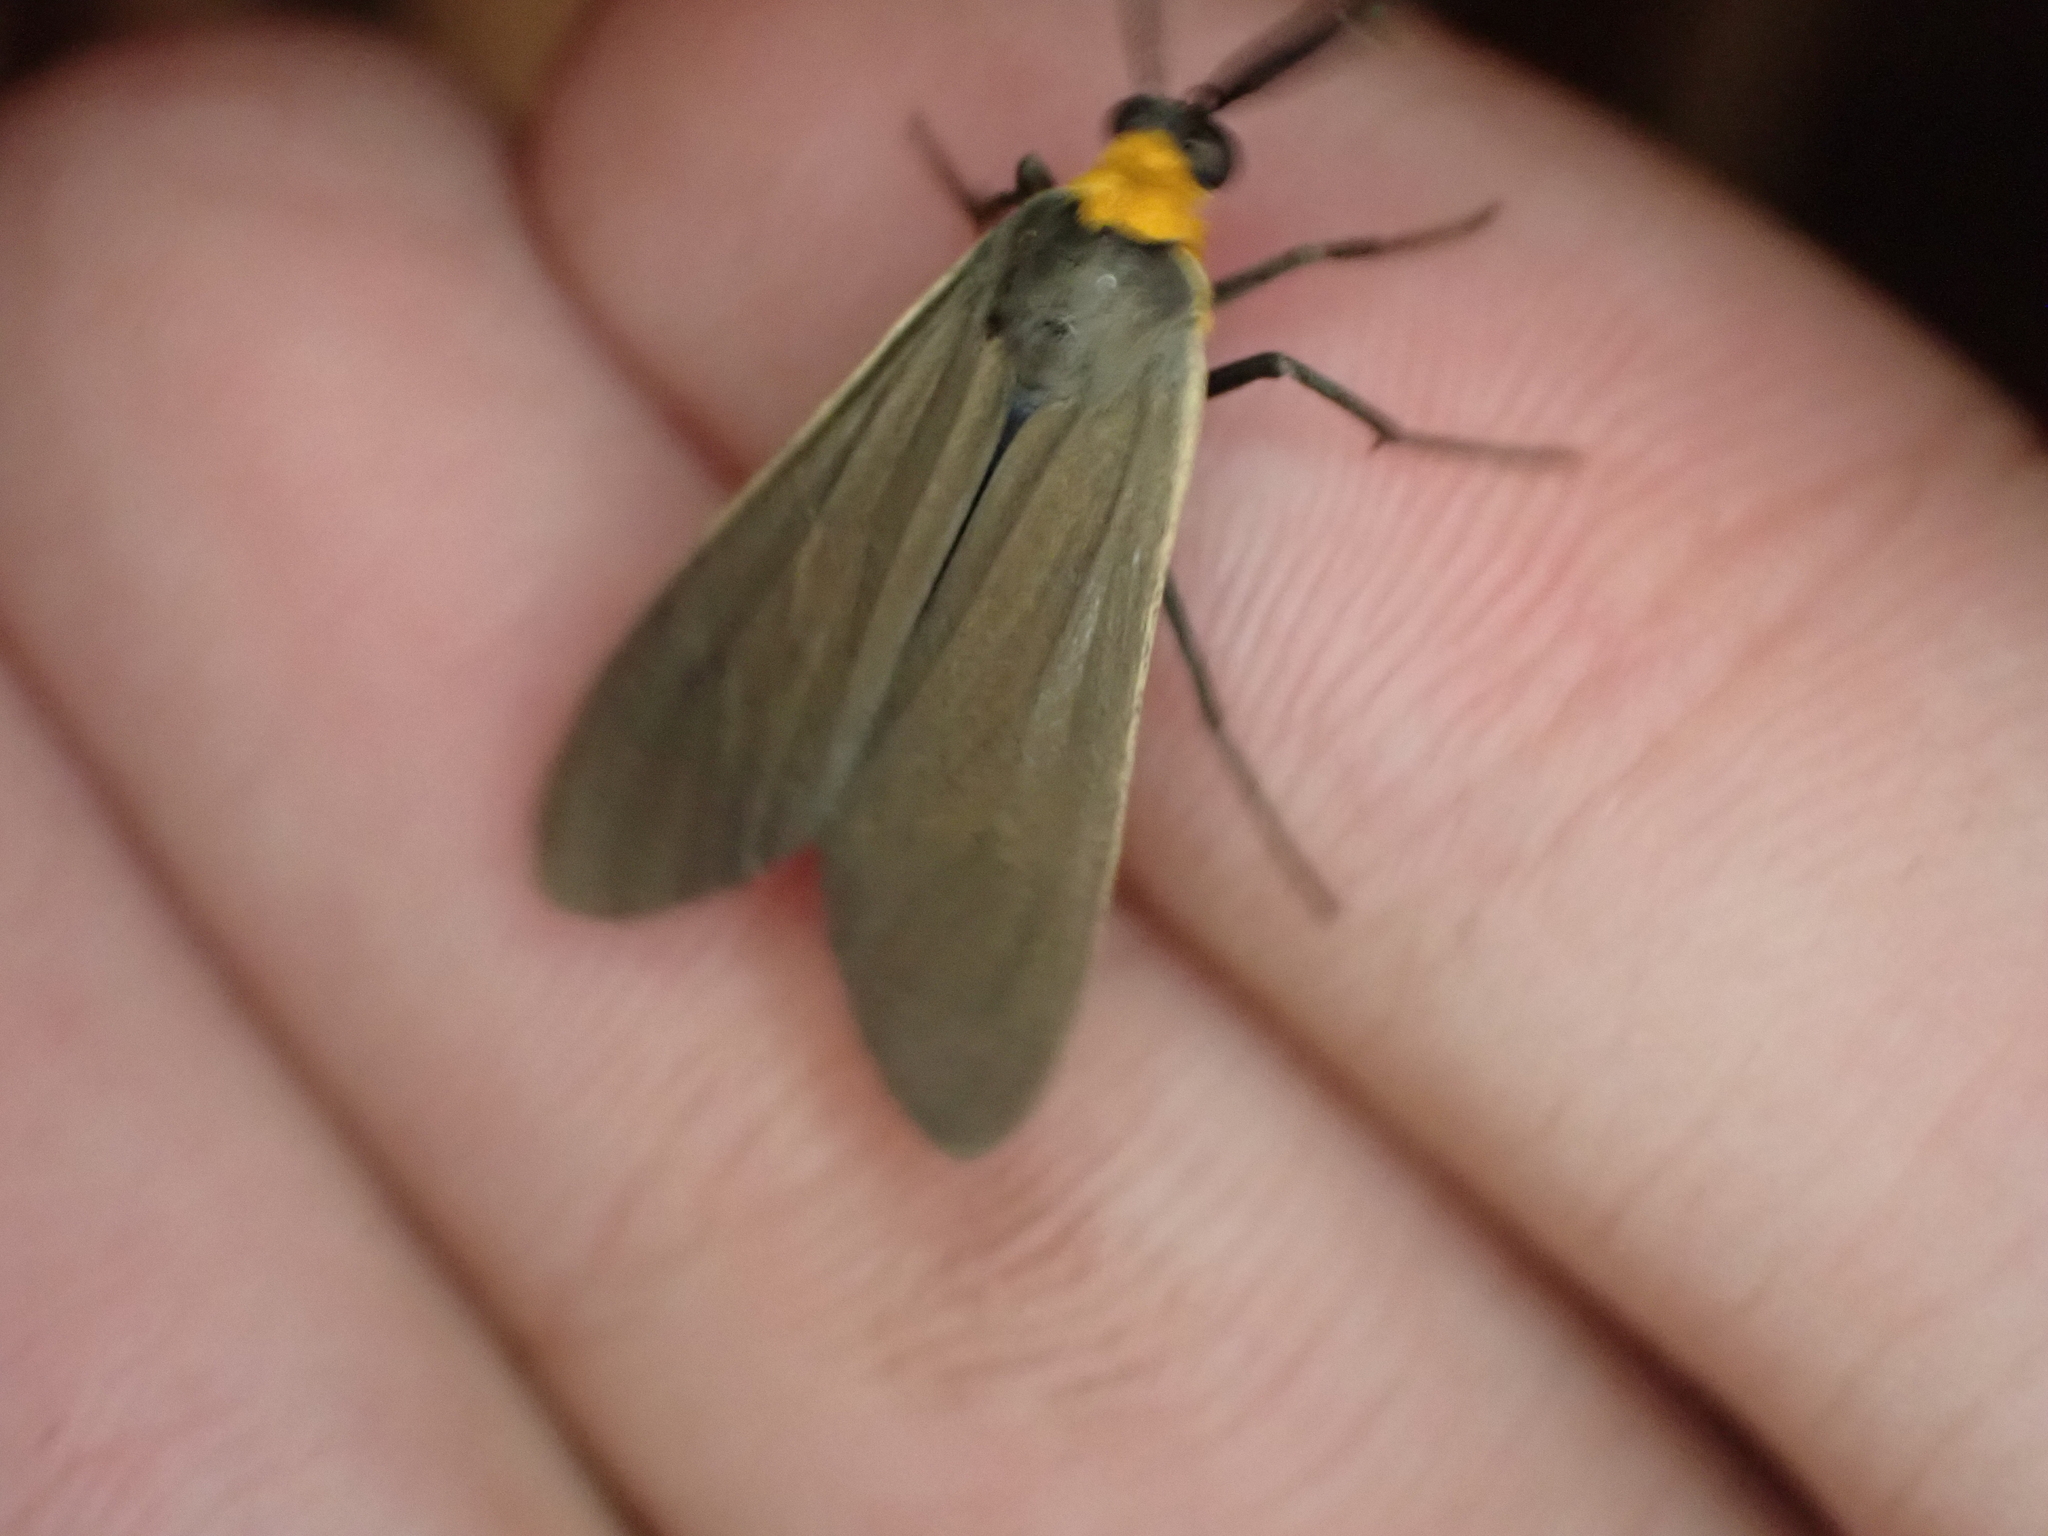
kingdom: Animalia
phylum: Arthropoda
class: Insecta
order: Lepidoptera
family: Erebidae
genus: Cisseps
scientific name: Cisseps fulvicollis
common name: Yellow-collared scape moth
